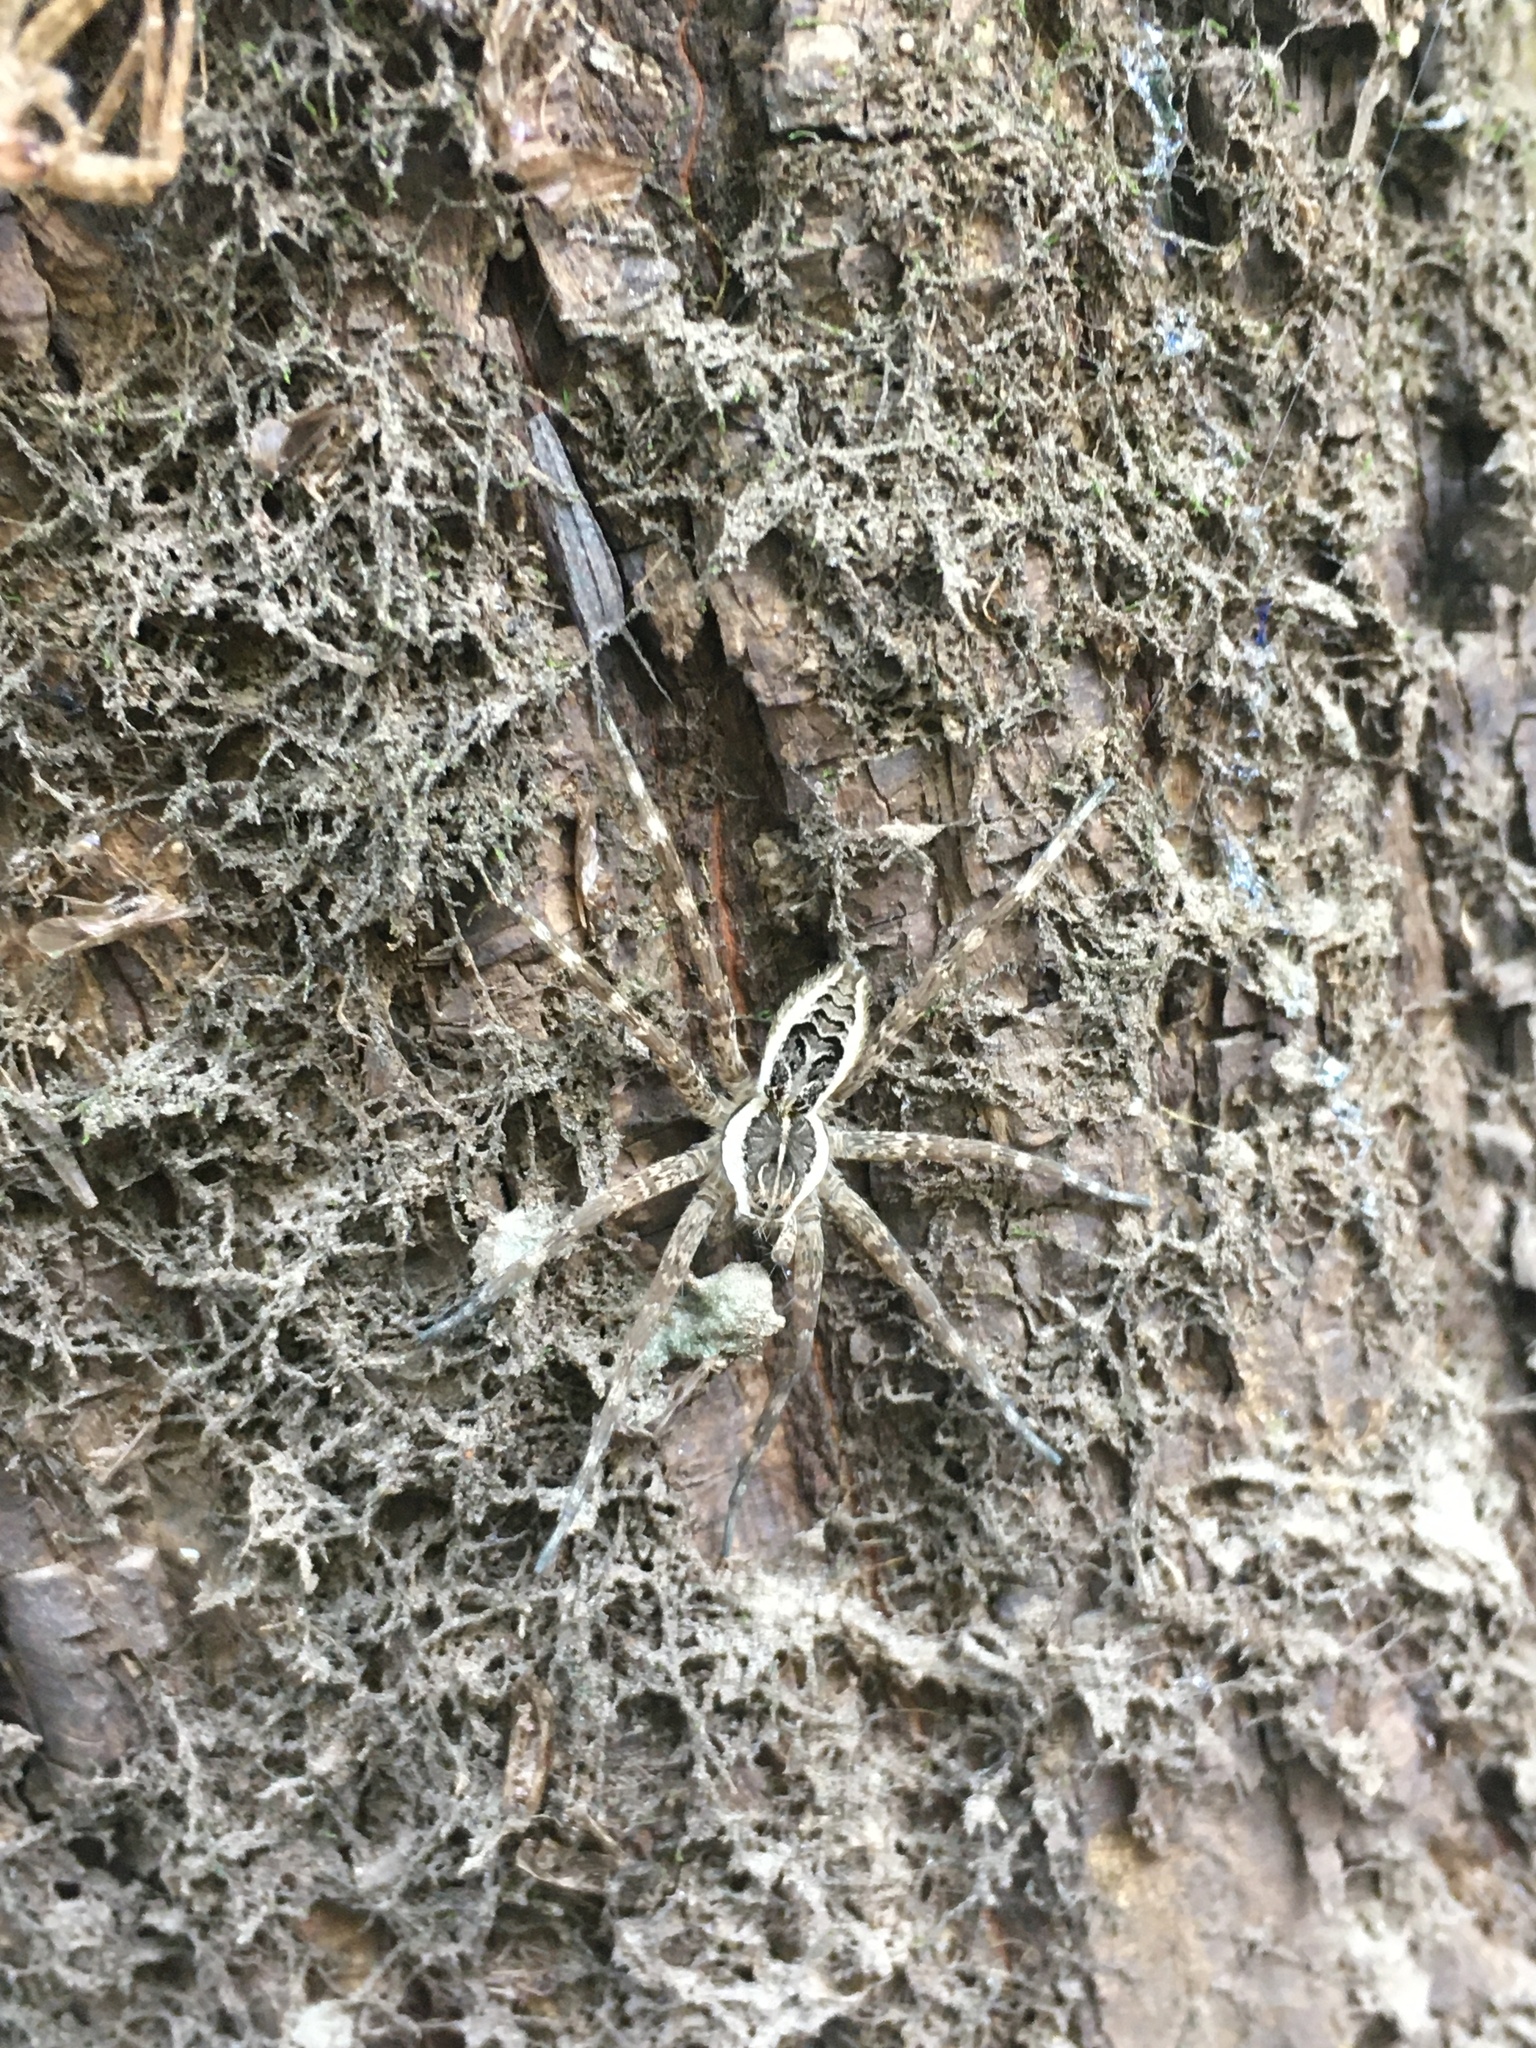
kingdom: Animalia
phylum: Arthropoda
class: Arachnida
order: Araneae
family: Pisauridae
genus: Dolomedes
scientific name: Dolomedes scriptus
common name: Striped fishing spider
